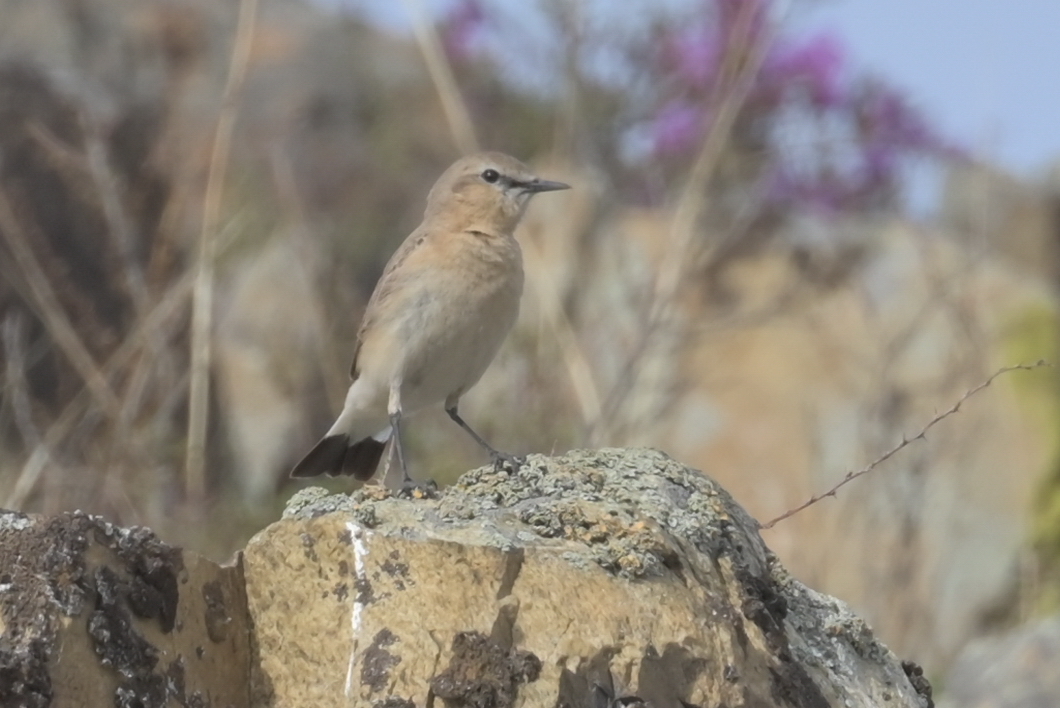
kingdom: Animalia
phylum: Chordata
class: Aves
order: Passeriformes
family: Muscicapidae
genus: Oenanthe
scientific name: Oenanthe isabellina
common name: Isabelline wheatear
